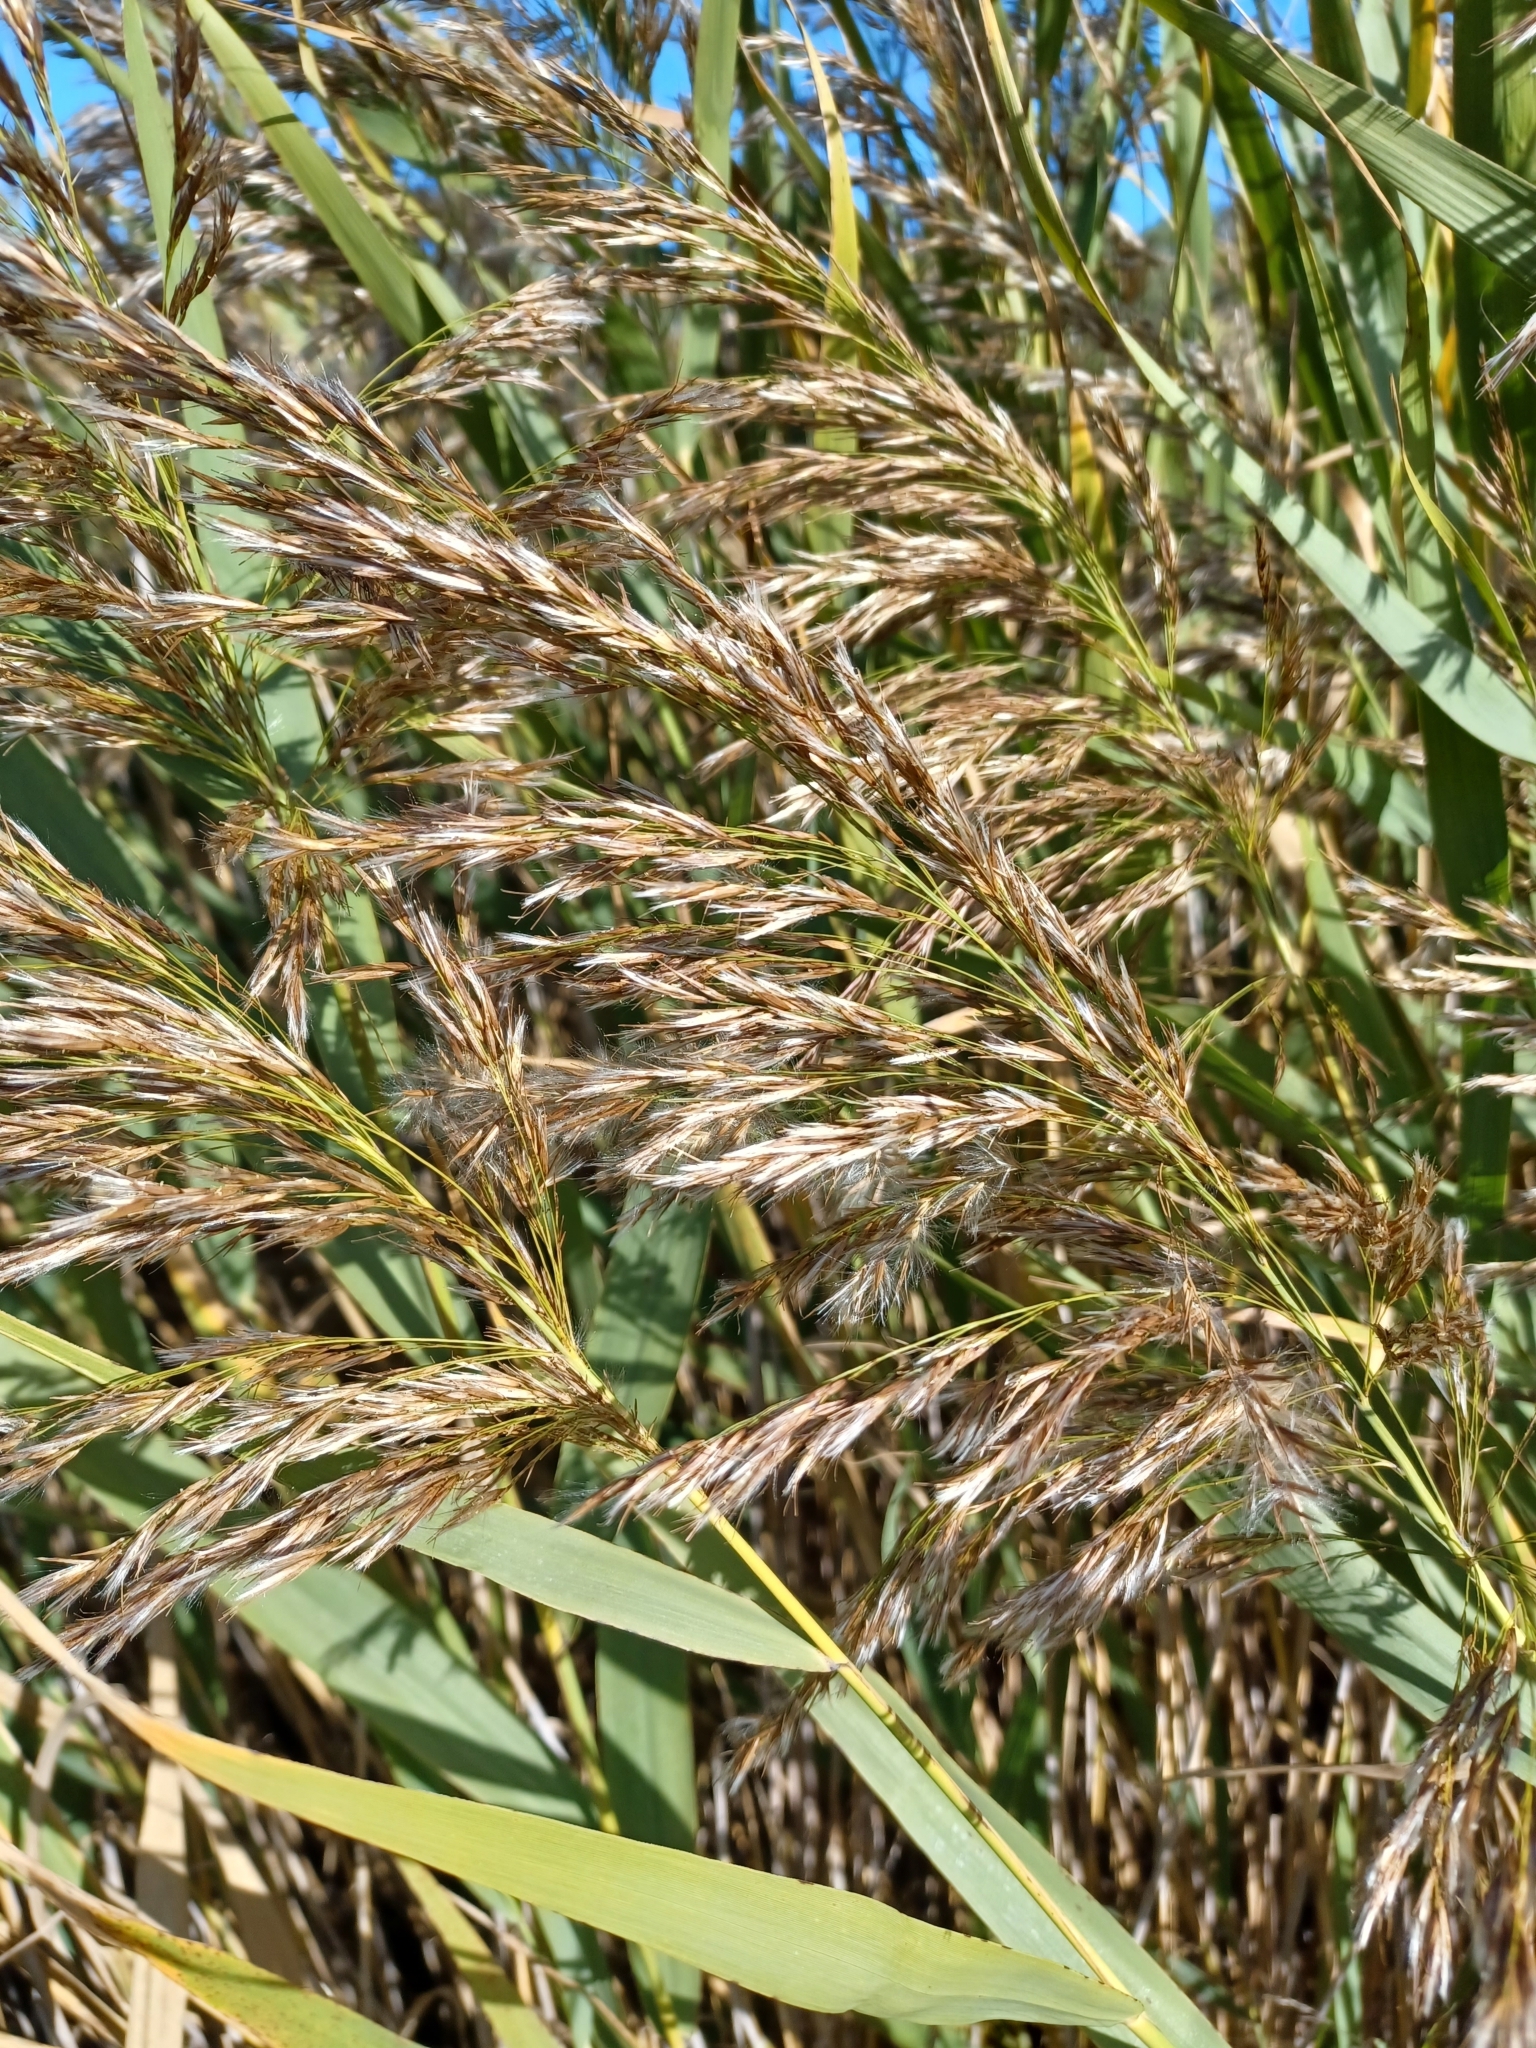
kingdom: Plantae
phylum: Tracheophyta
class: Liliopsida
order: Poales
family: Poaceae
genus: Phragmites
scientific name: Phragmites australis
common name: Common reed
